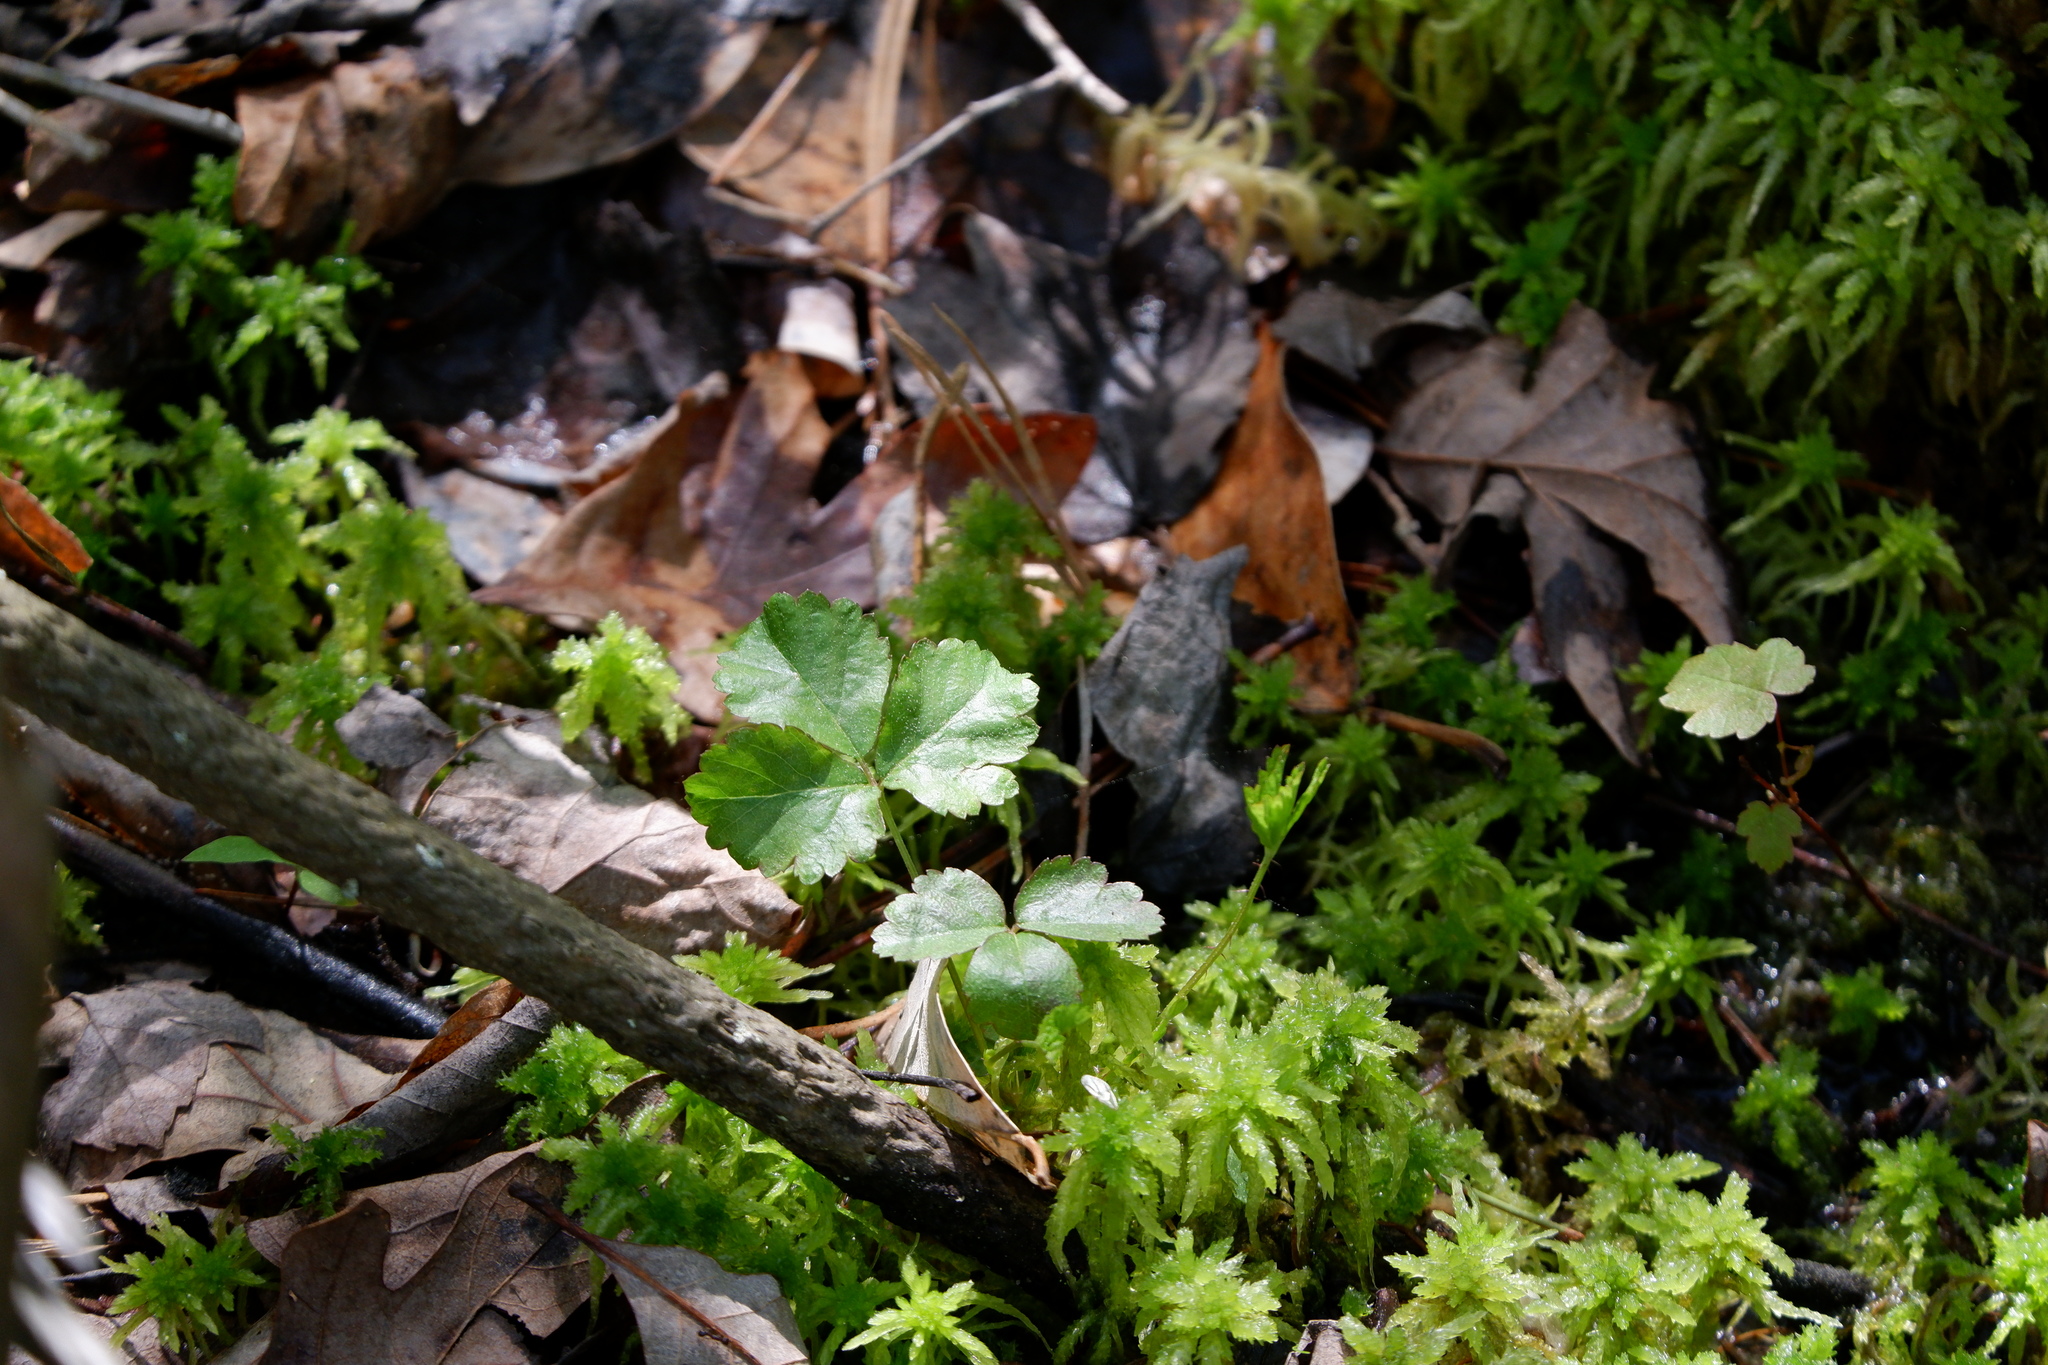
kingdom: Plantae
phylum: Tracheophyta
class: Magnoliopsida
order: Rosales
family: Rosaceae
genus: Rubus
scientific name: Rubus hispidus
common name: Running blackberry
